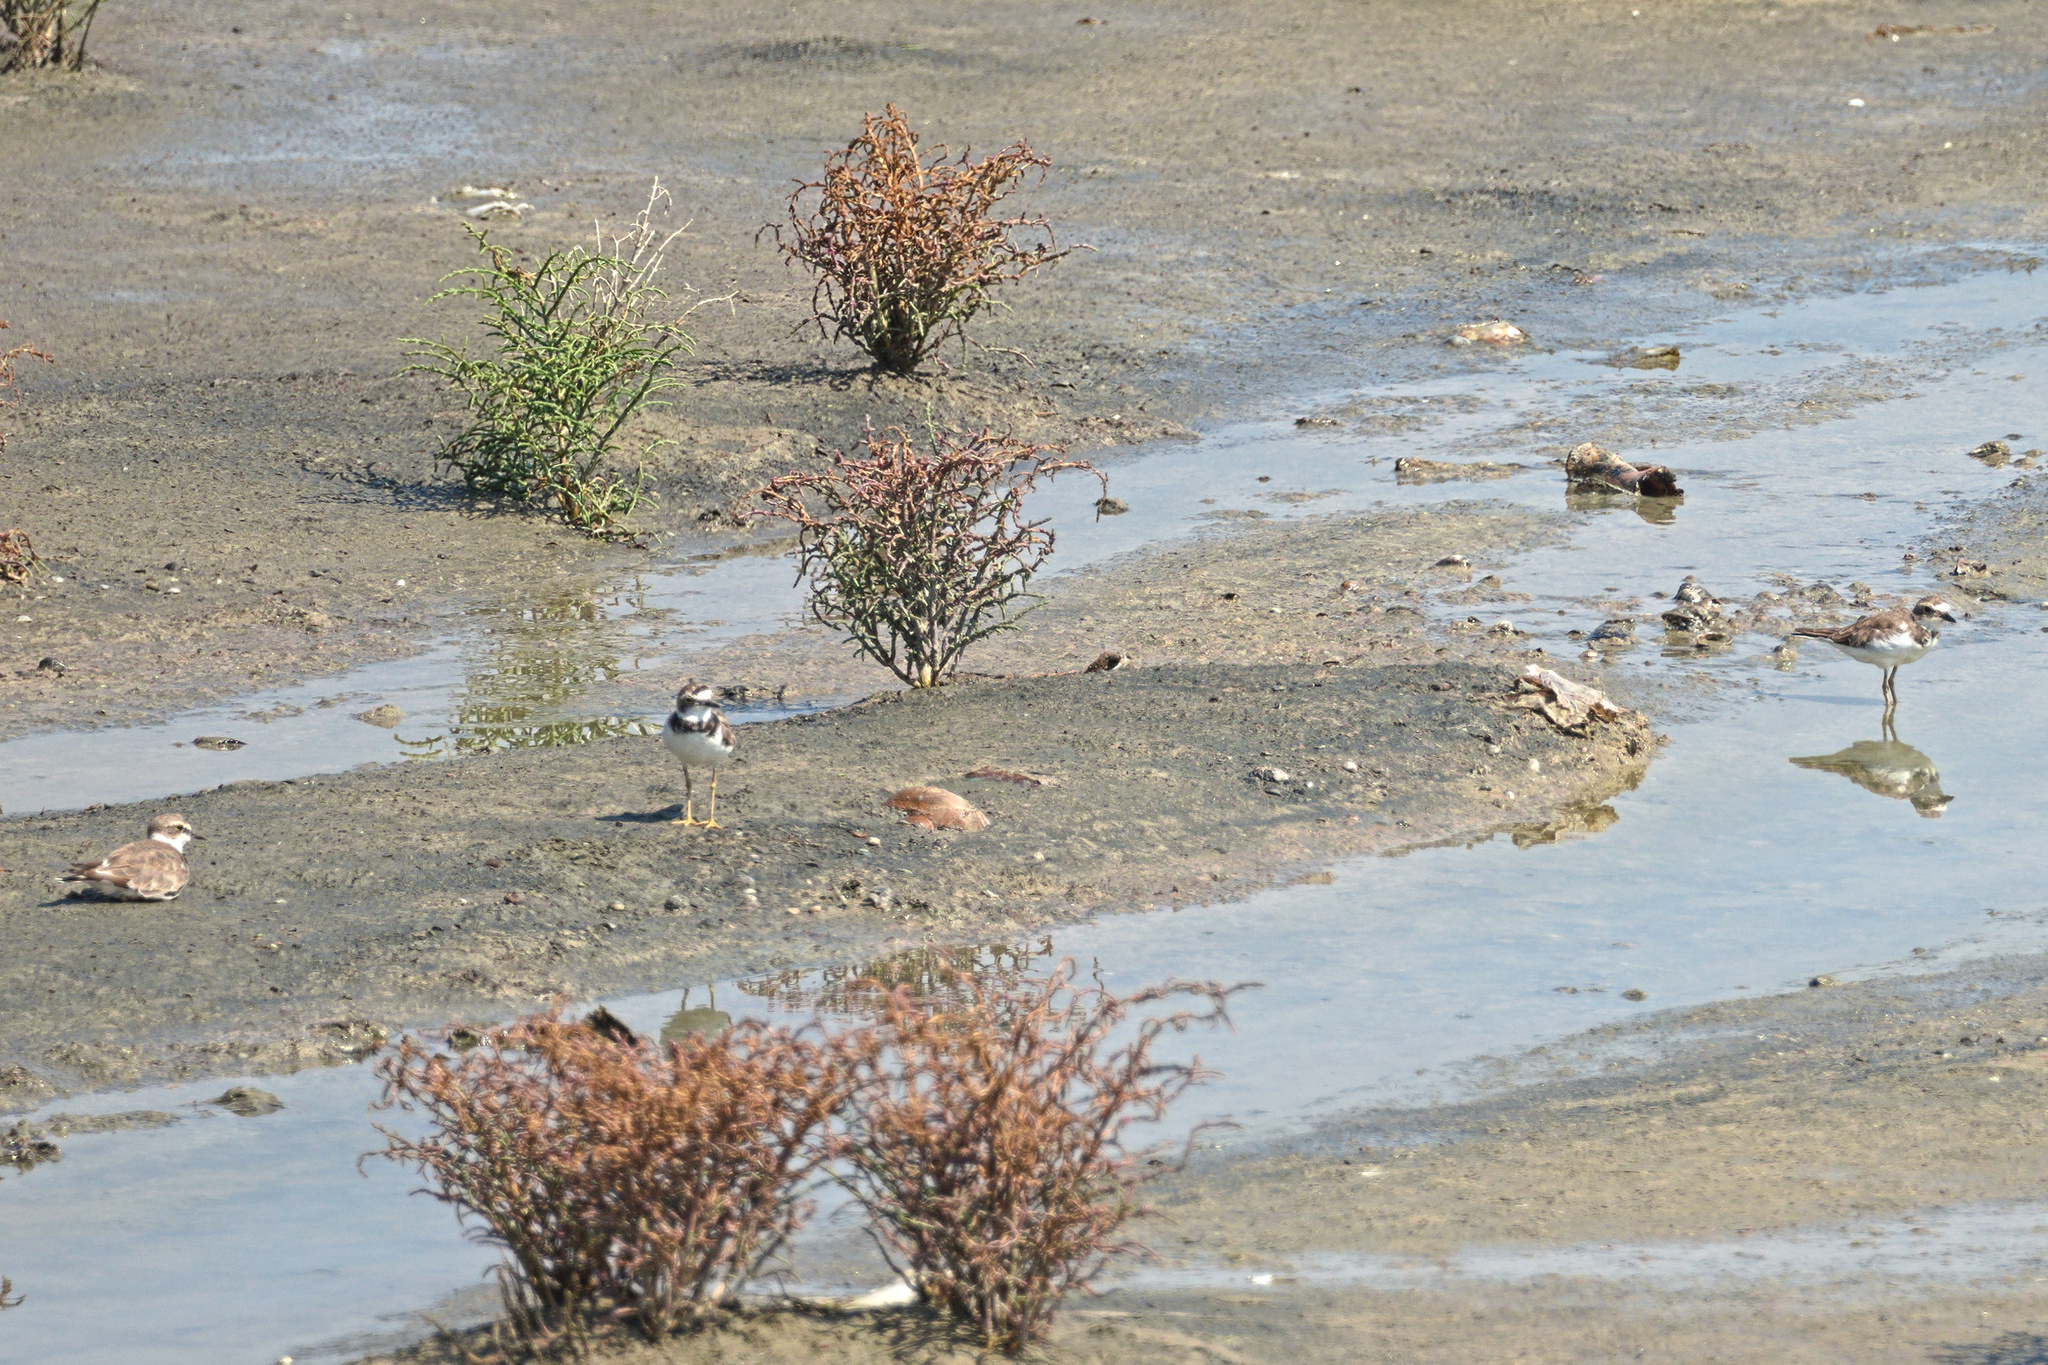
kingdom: Animalia
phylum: Chordata
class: Aves
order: Charadriiformes
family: Charadriidae
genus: Charadrius
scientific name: Charadrius dubius
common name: Little ringed plover
